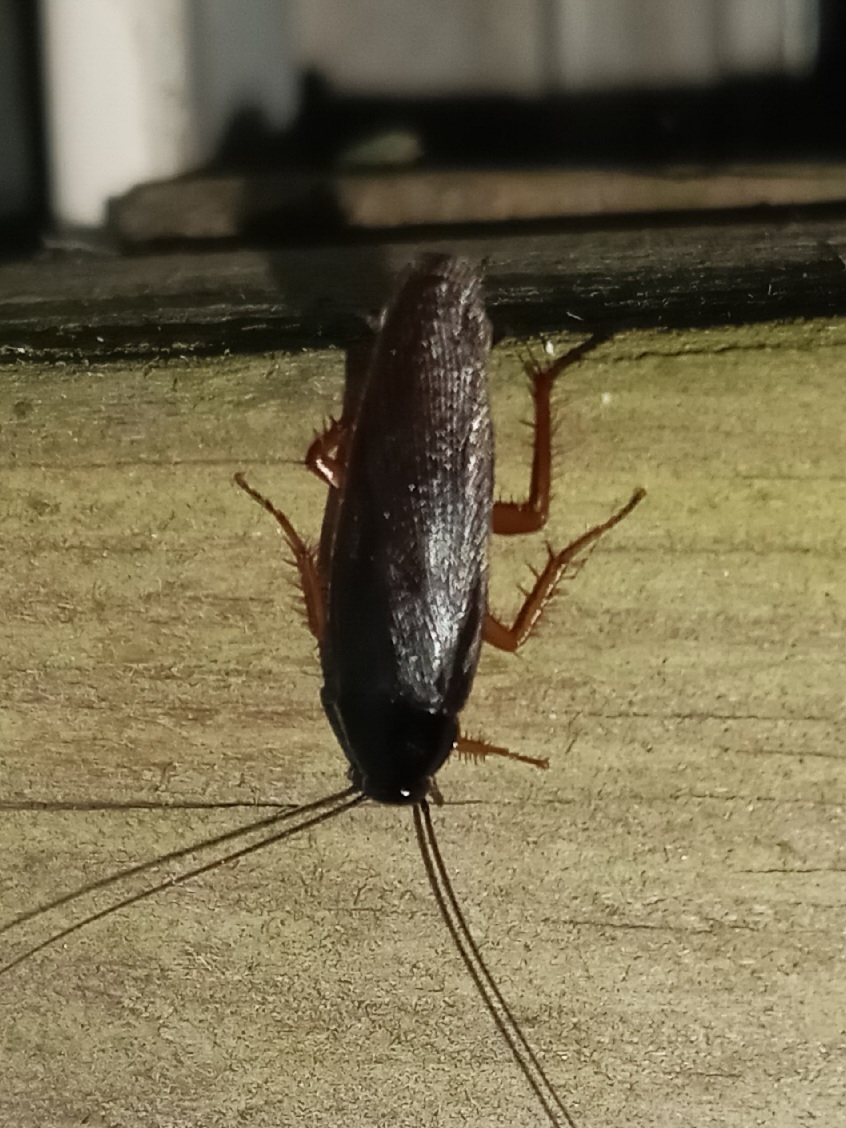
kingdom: Animalia
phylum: Arthropoda
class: Insecta
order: Blattodea
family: Ectobiidae
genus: Ischnoptera
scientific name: Ischnoptera deropeltiformis
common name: Dark wood cockroach
